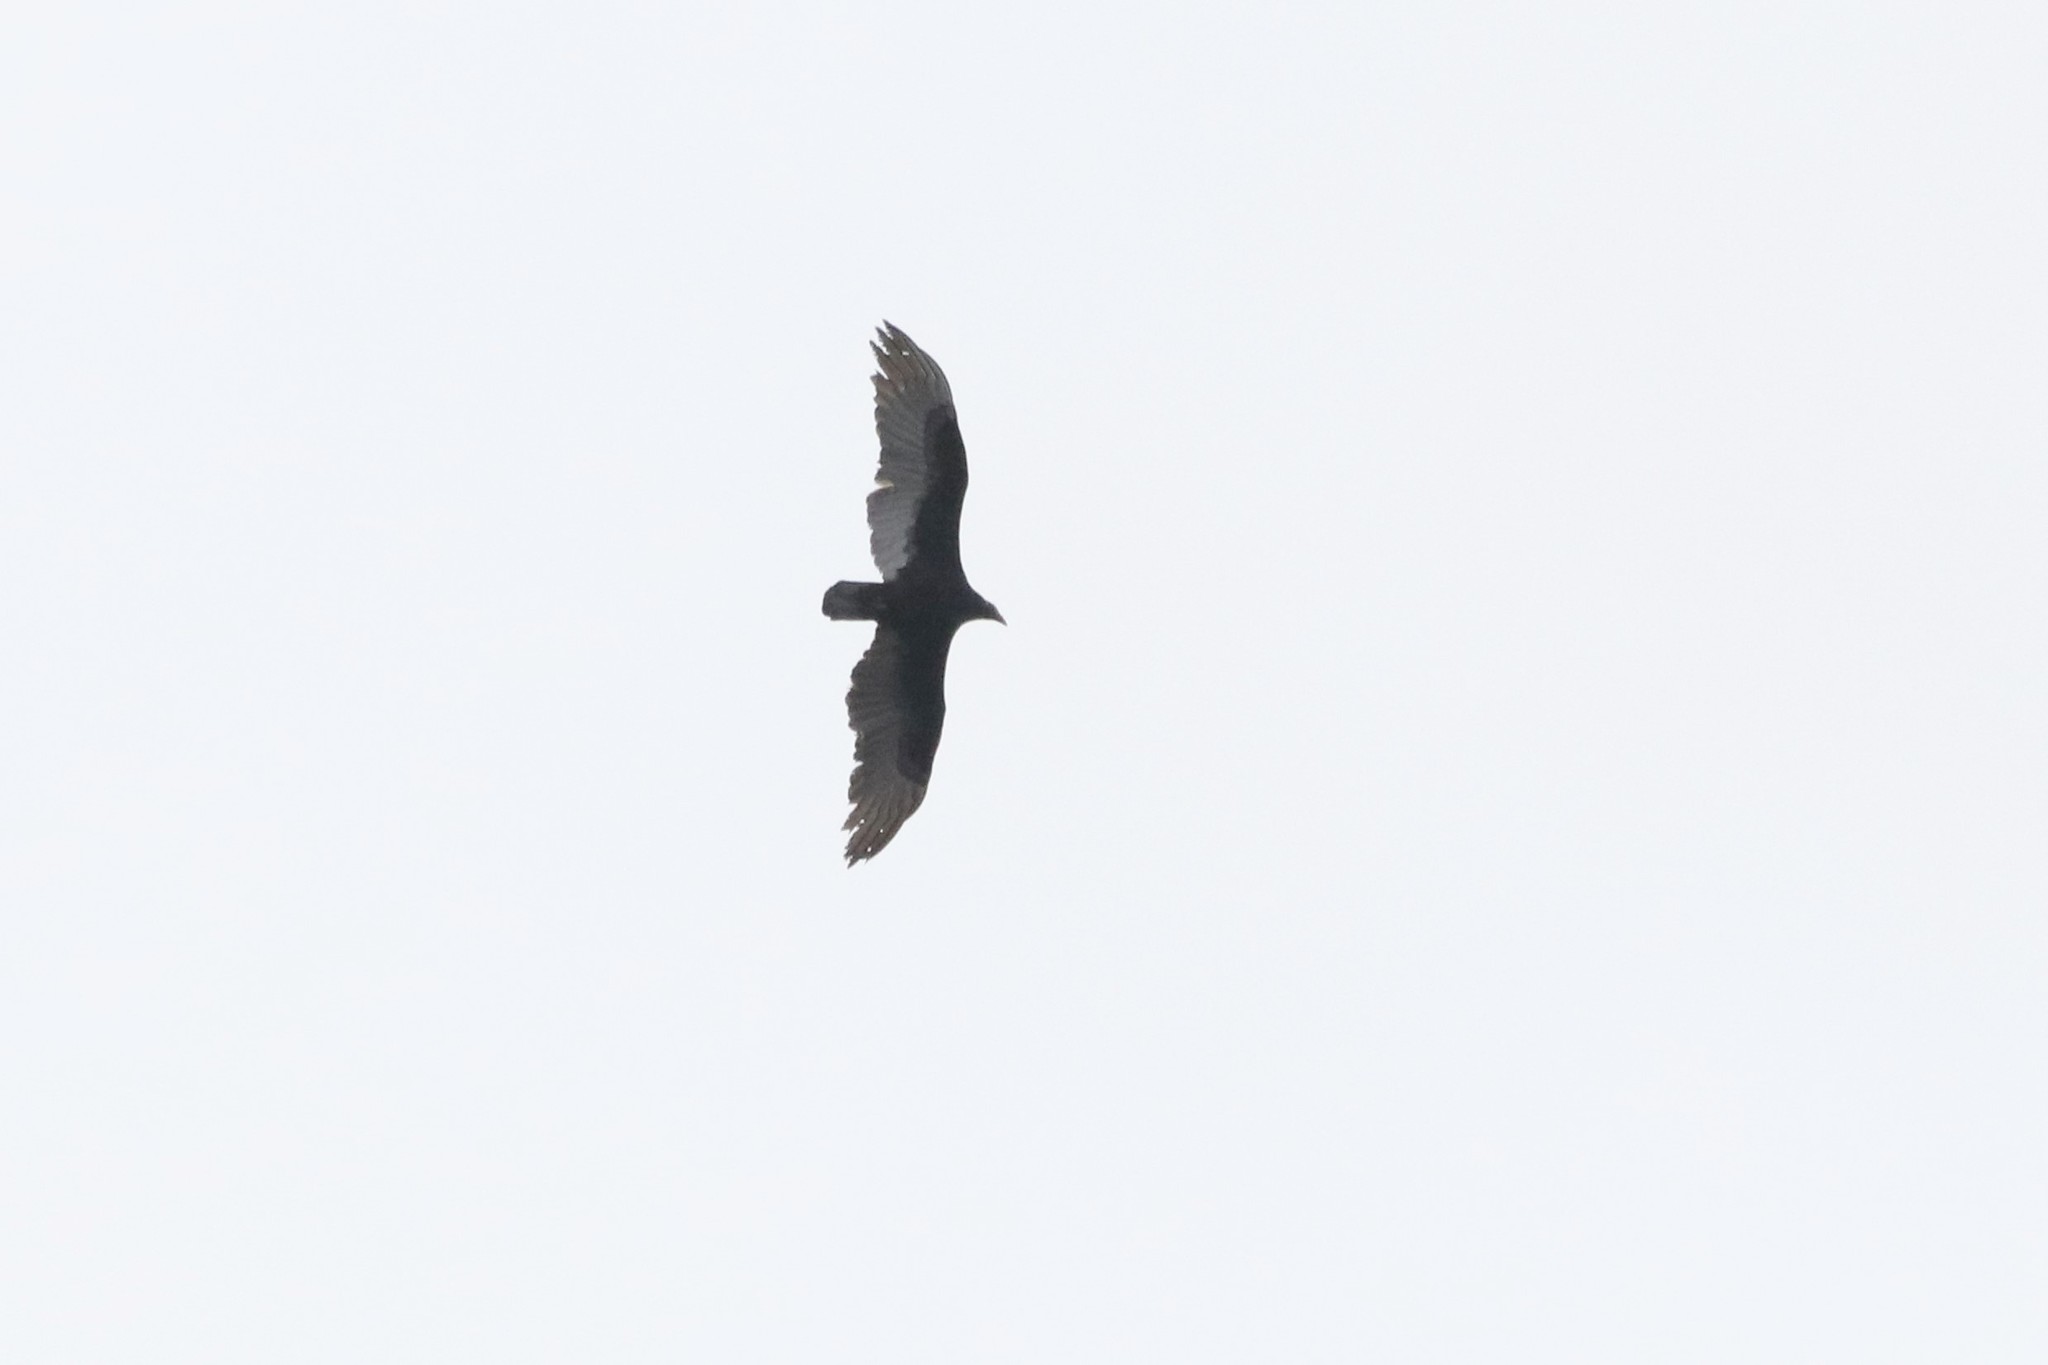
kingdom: Animalia
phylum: Chordata
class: Aves
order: Accipitriformes
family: Cathartidae
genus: Cathartes
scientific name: Cathartes aura
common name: Turkey vulture
